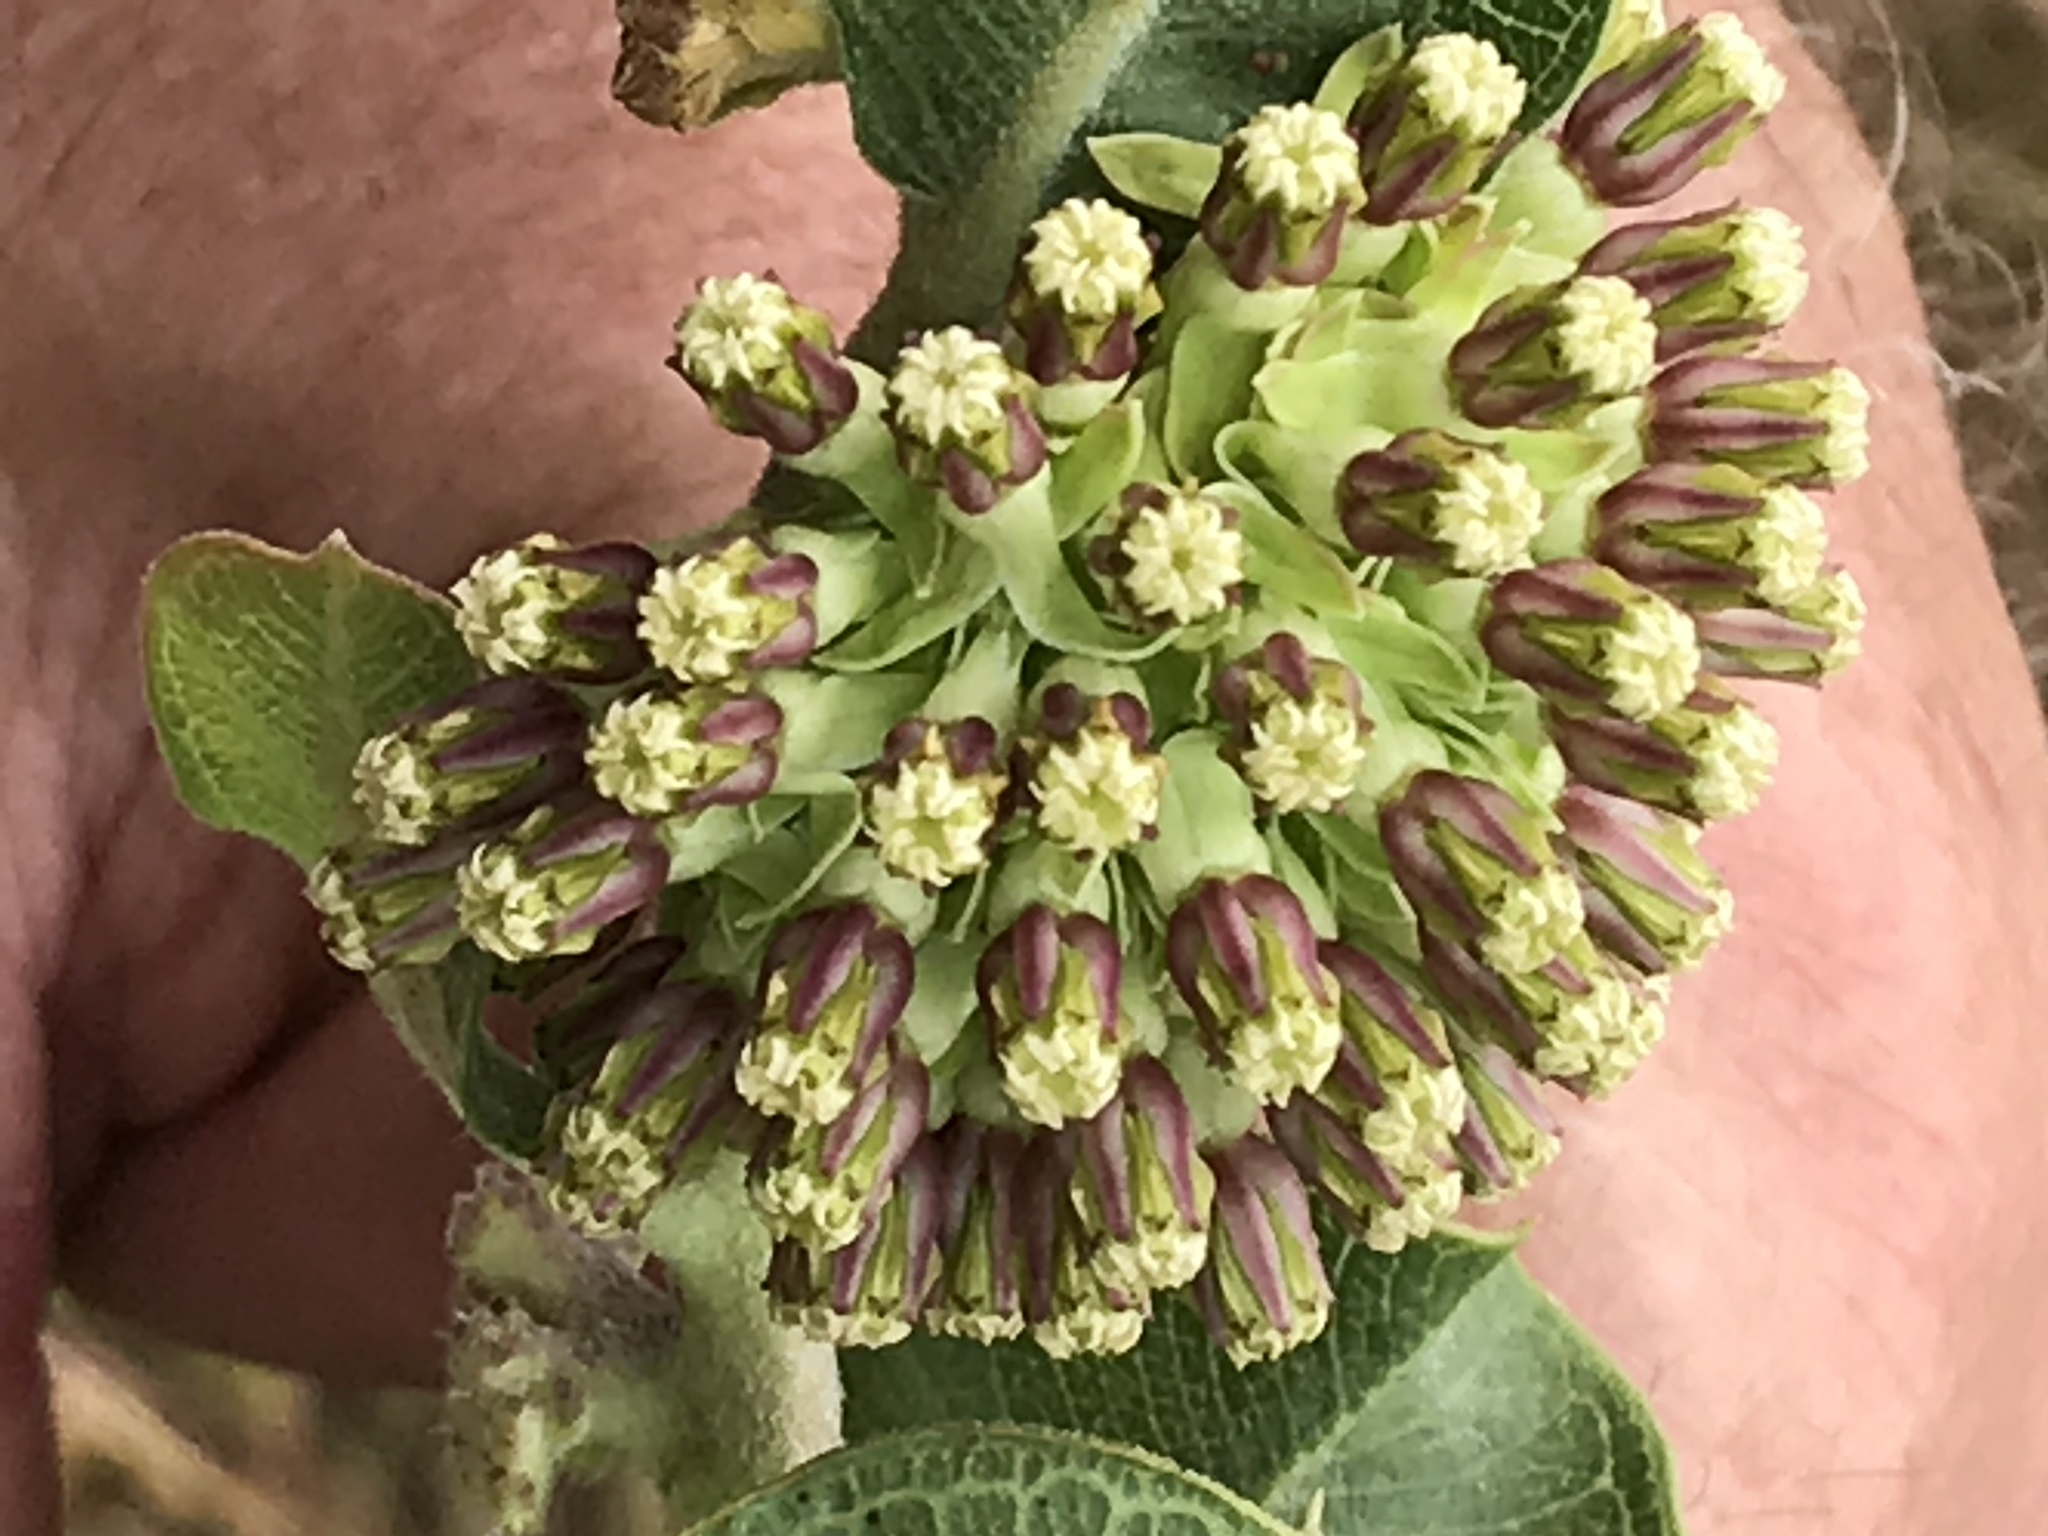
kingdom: Plantae
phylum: Tracheophyta
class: Magnoliopsida
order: Gentianales
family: Apocynaceae
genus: Asclepias
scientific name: Asclepias viridiflora
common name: Green comet milkweed
